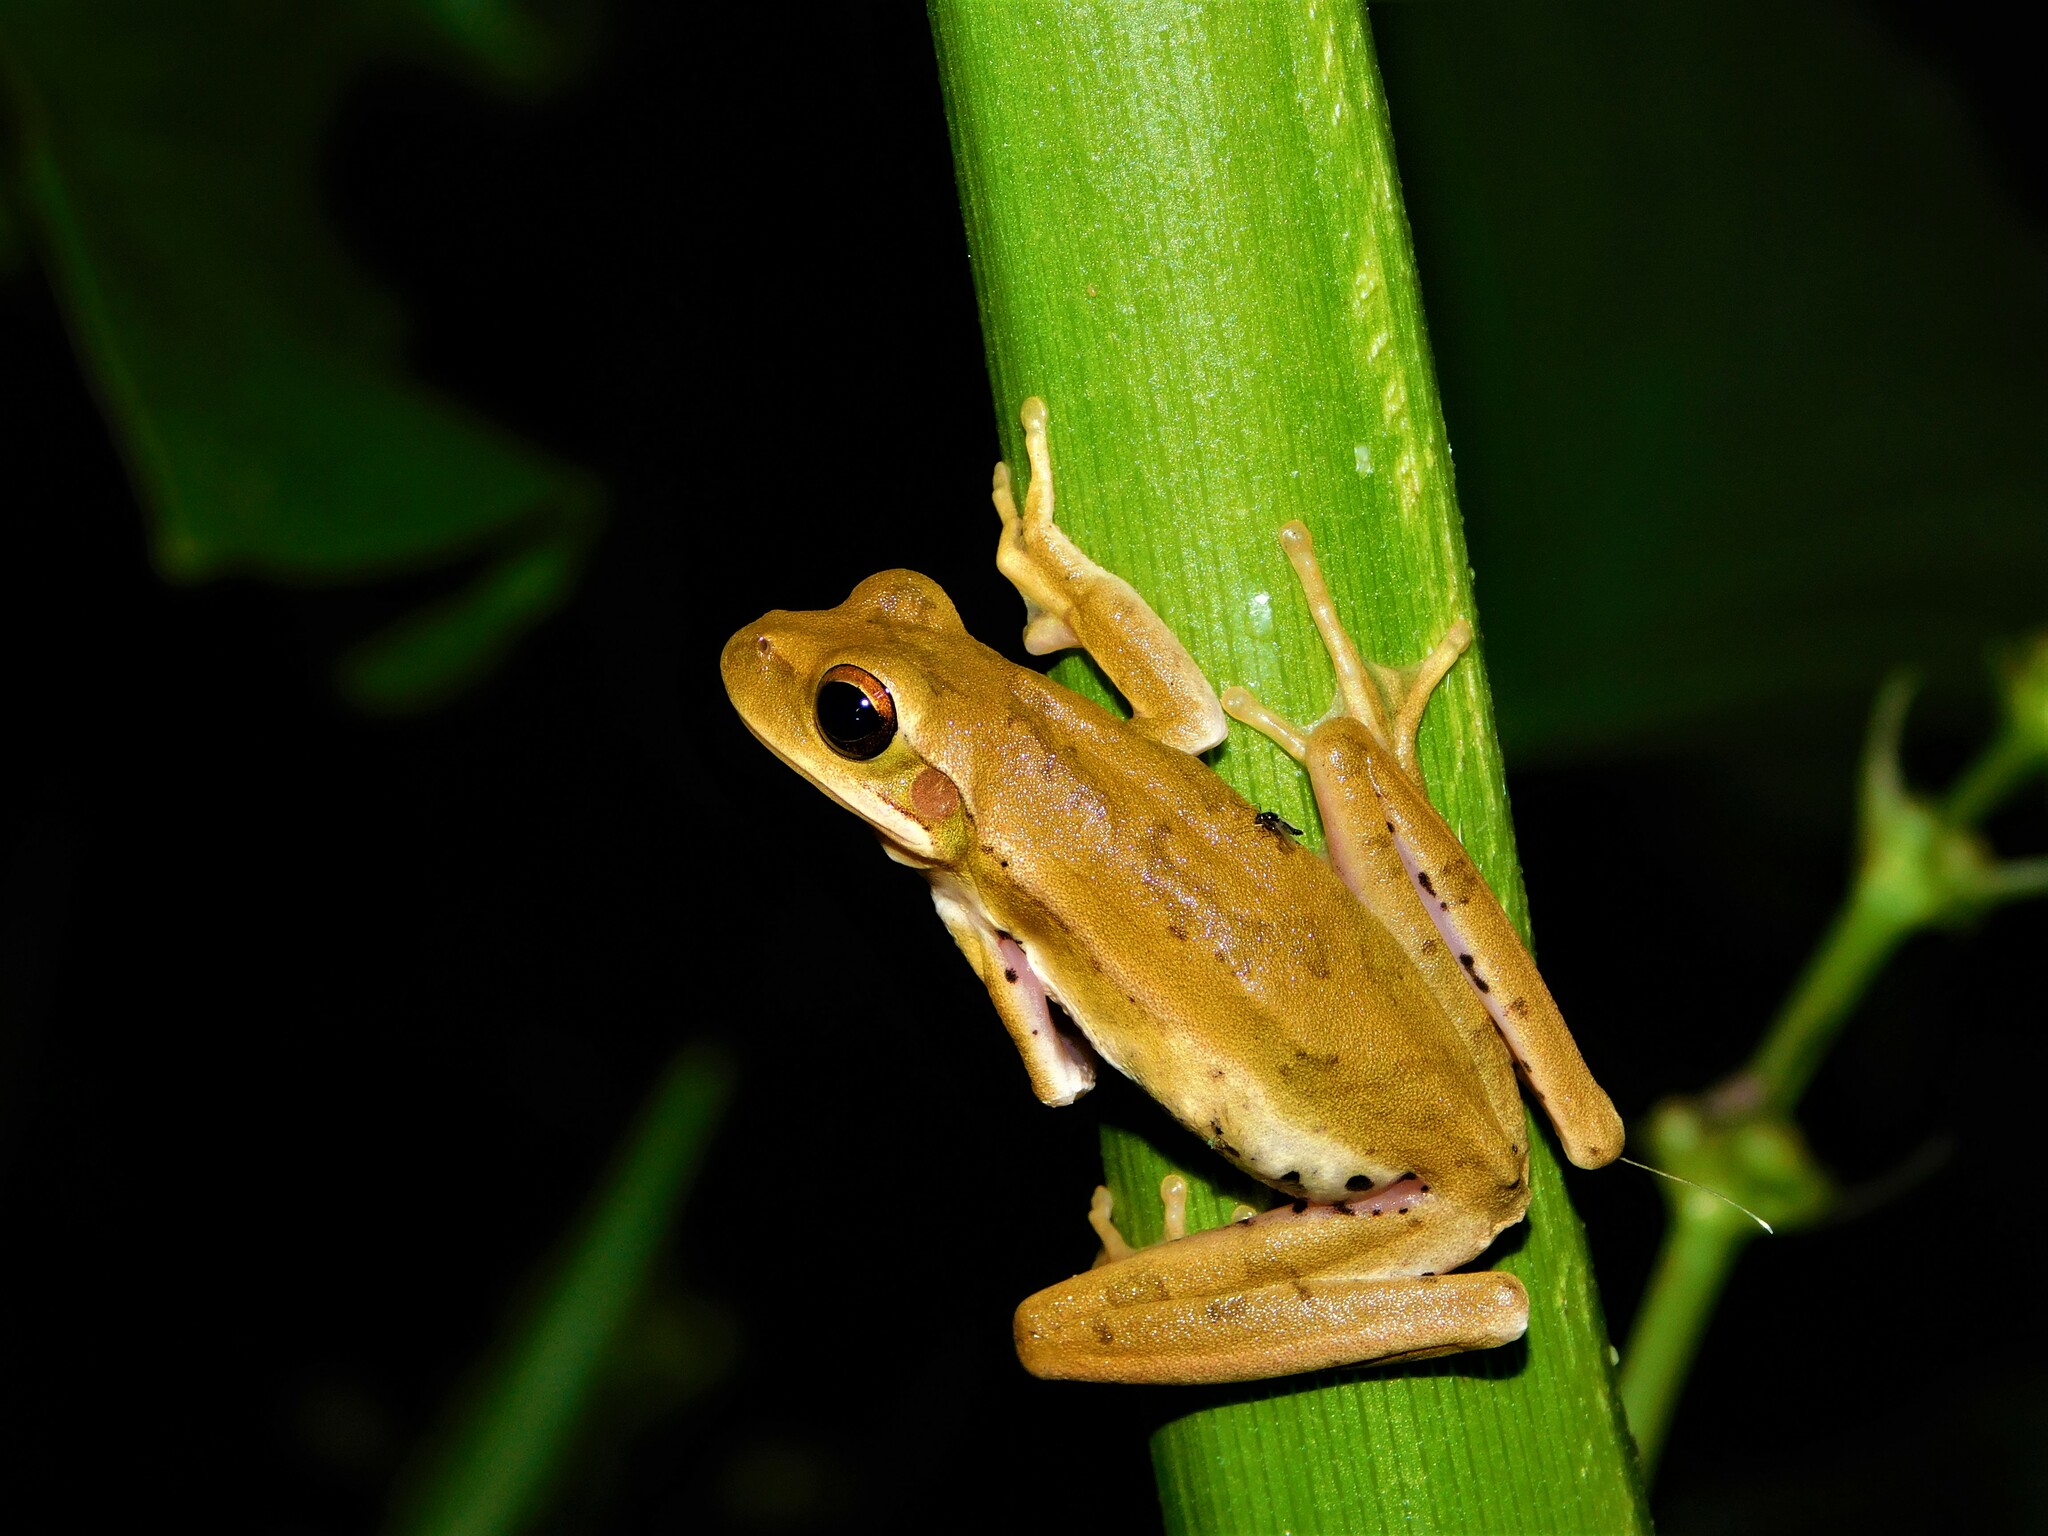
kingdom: Animalia
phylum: Chordata
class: Amphibia
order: Anura
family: Hylidae
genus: Boana
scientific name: Boana pulchella
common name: Montevideo treefrog
